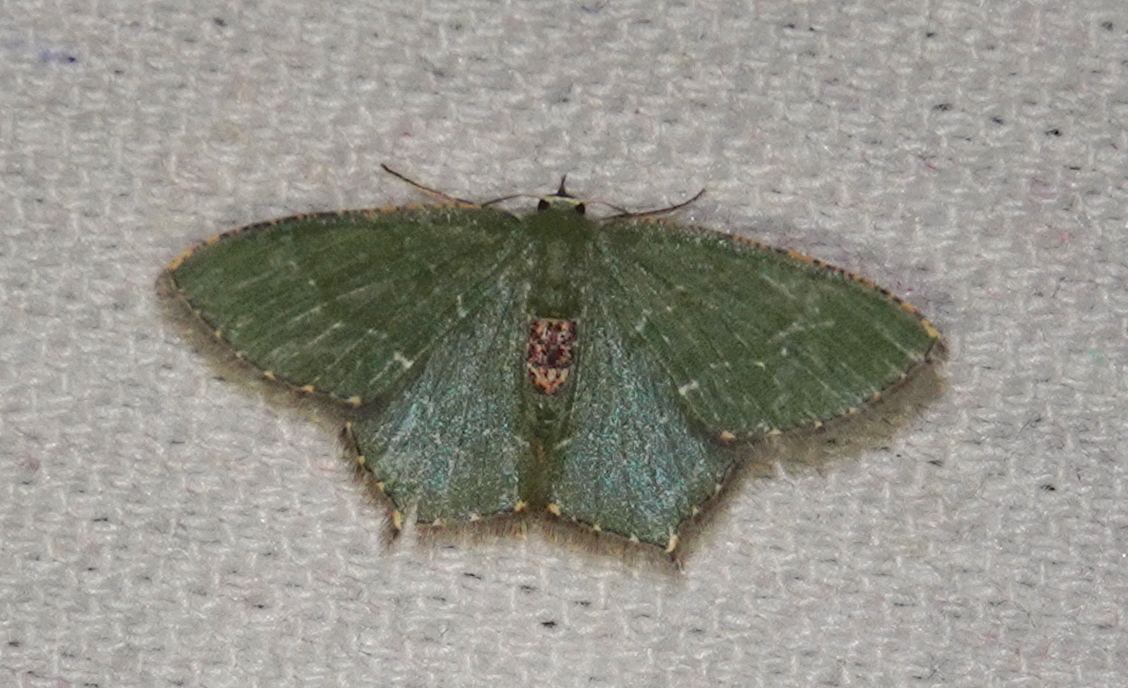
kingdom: Animalia
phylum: Arthropoda
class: Insecta
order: Lepidoptera
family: Geometridae
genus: Hemithea
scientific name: Hemithea marina
